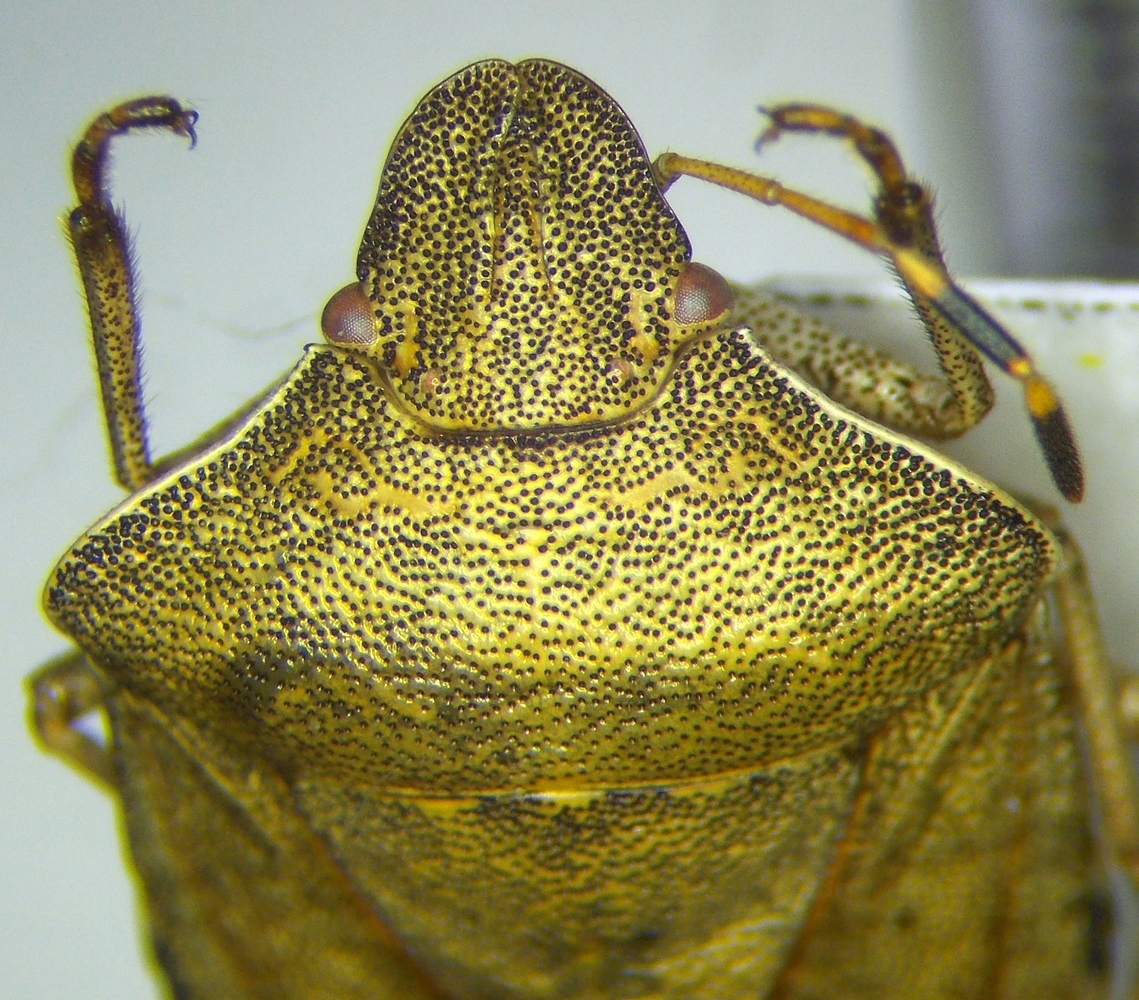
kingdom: Animalia
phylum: Arthropoda
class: Insecta
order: Hemiptera
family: Pentatomidae
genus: Holcostethus
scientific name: Holcostethus strictus
